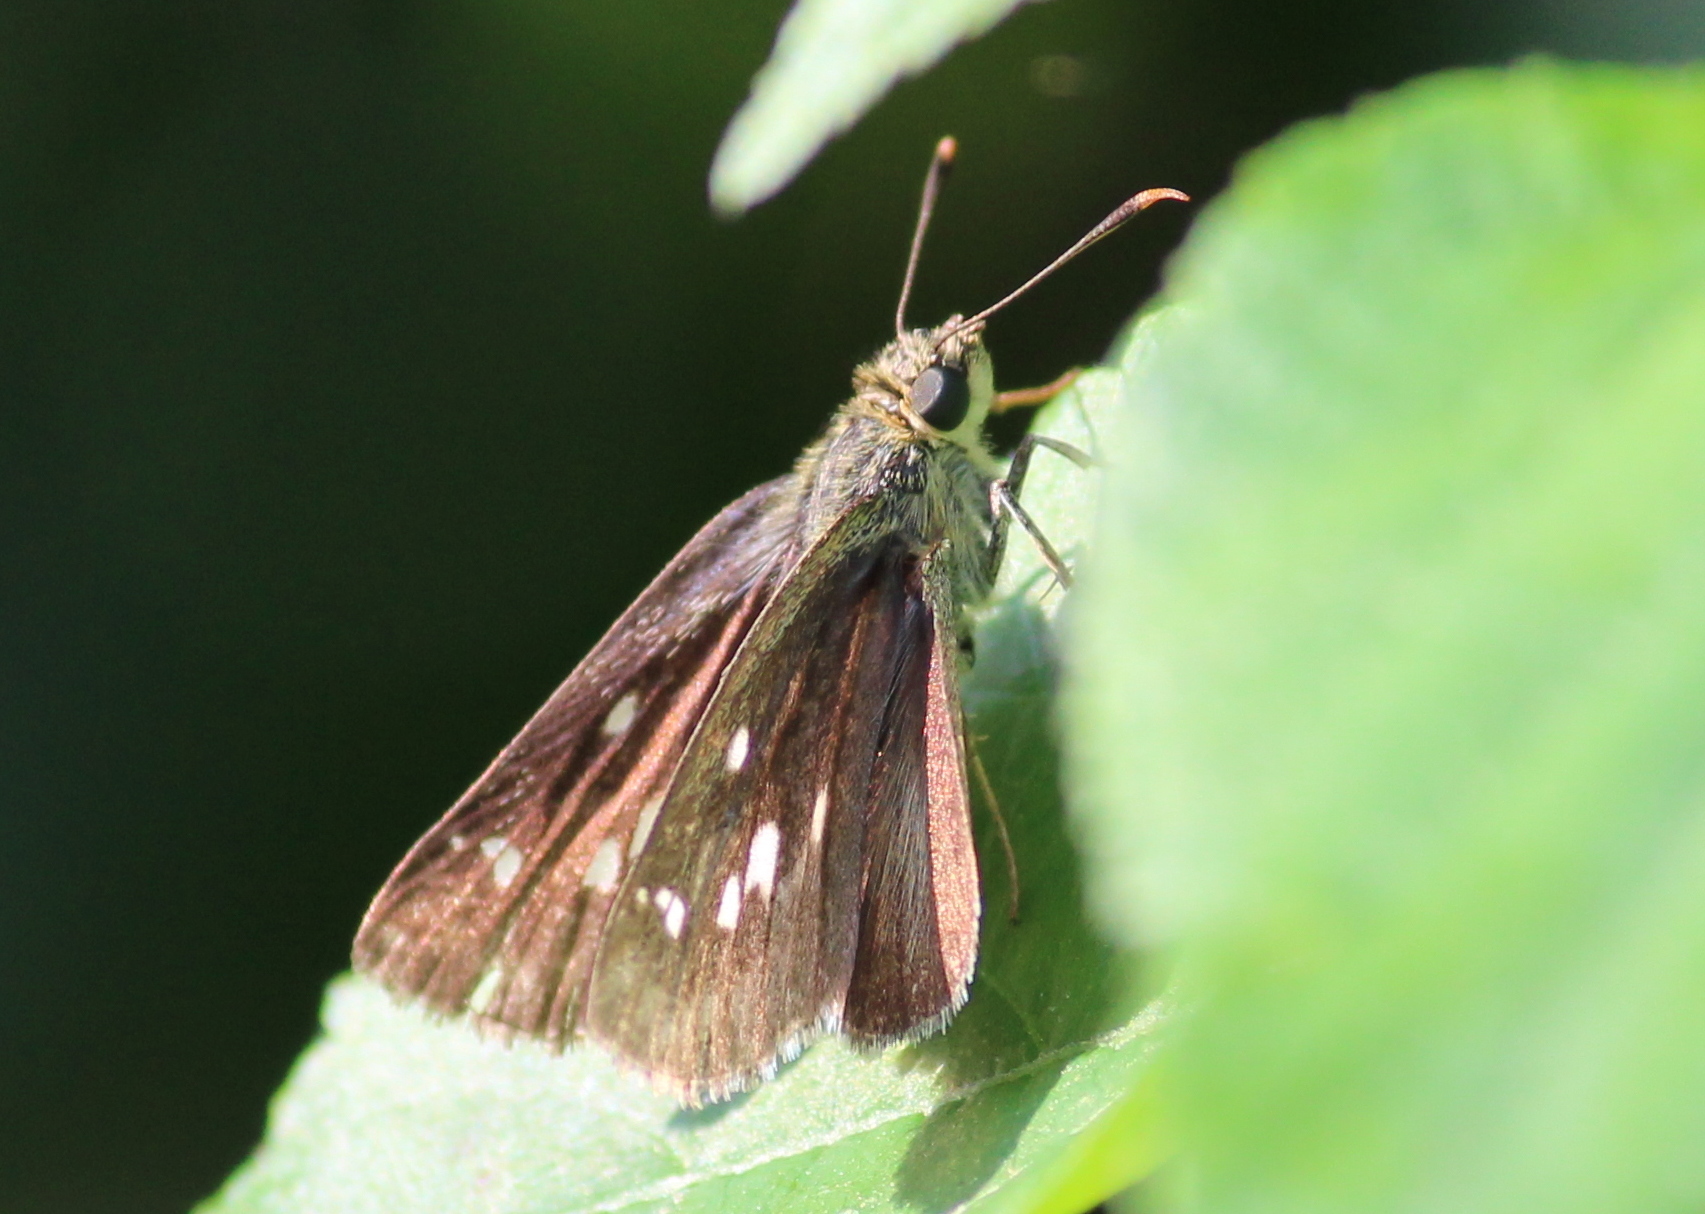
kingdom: Animalia
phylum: Arthropoda
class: Insecta
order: Lepidoptera
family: Hesperiidae
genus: Halpe
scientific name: Halpe homolea
